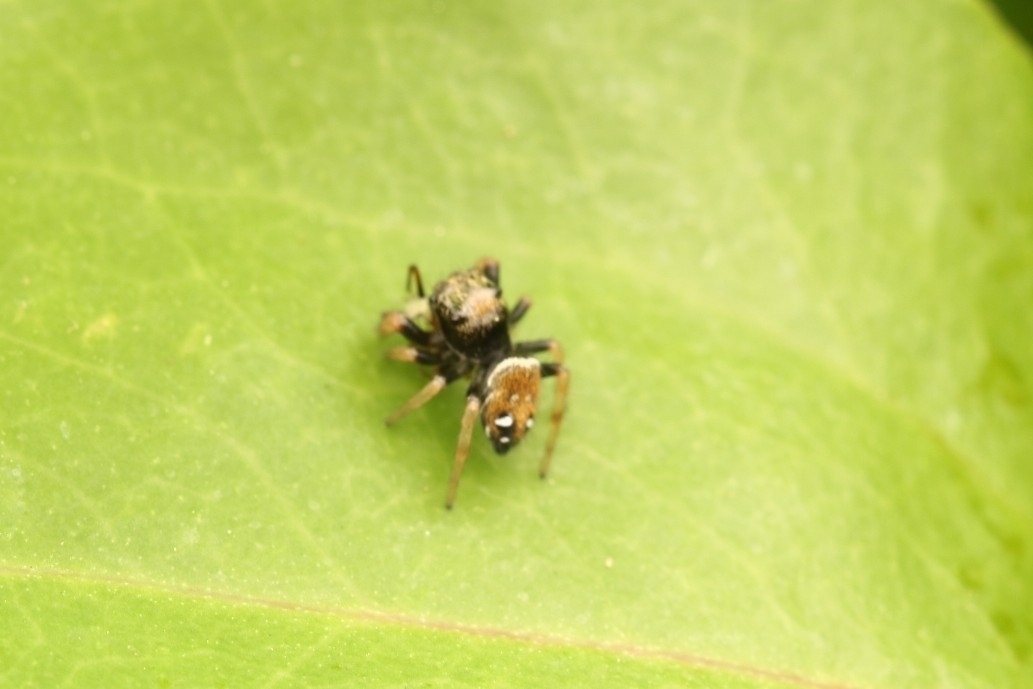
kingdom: Animalia
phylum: Arthropoda
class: Arachnida
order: Araneae
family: Salticidae
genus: Phidippus
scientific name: Phidippus whitmani
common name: Whitman's jumping spider
